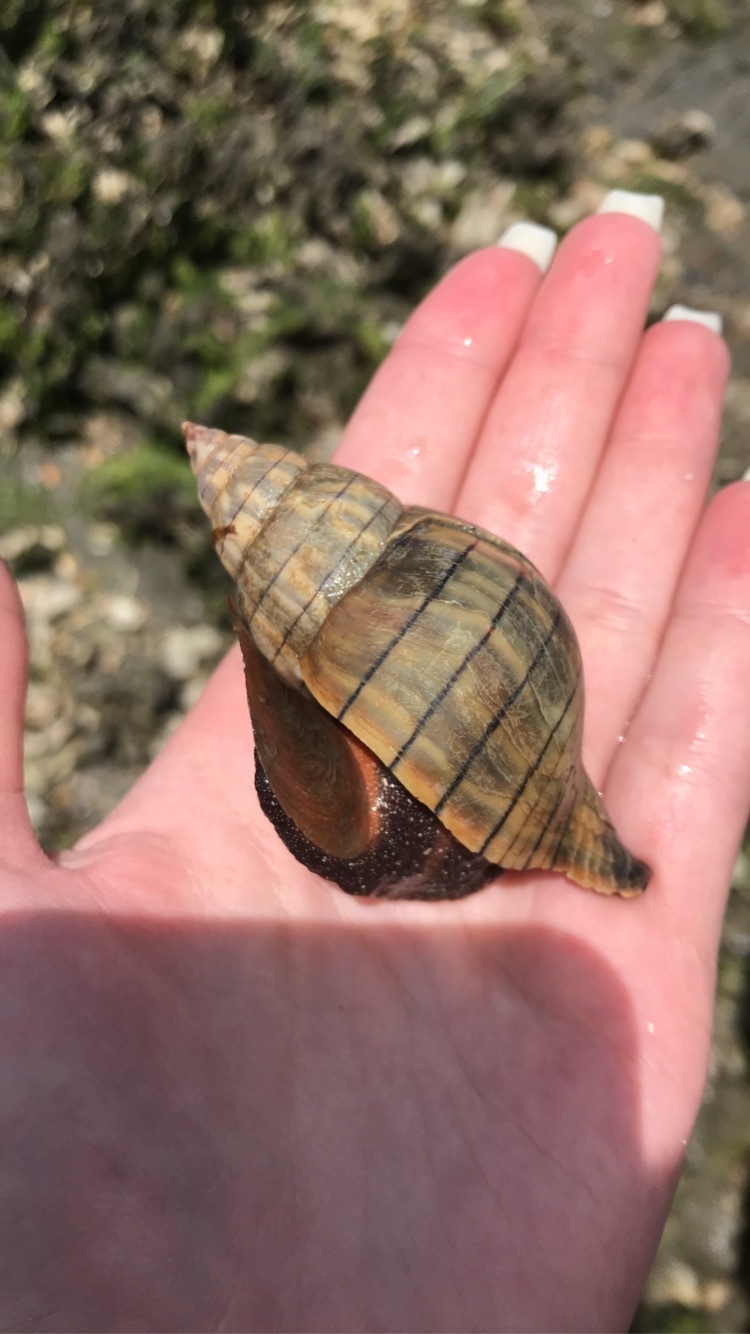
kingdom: Animalia
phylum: Mollusca
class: Gastropoda
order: Neogastropoda
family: Fasciolariidae
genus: Cinctura
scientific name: Cinctura hunteria
